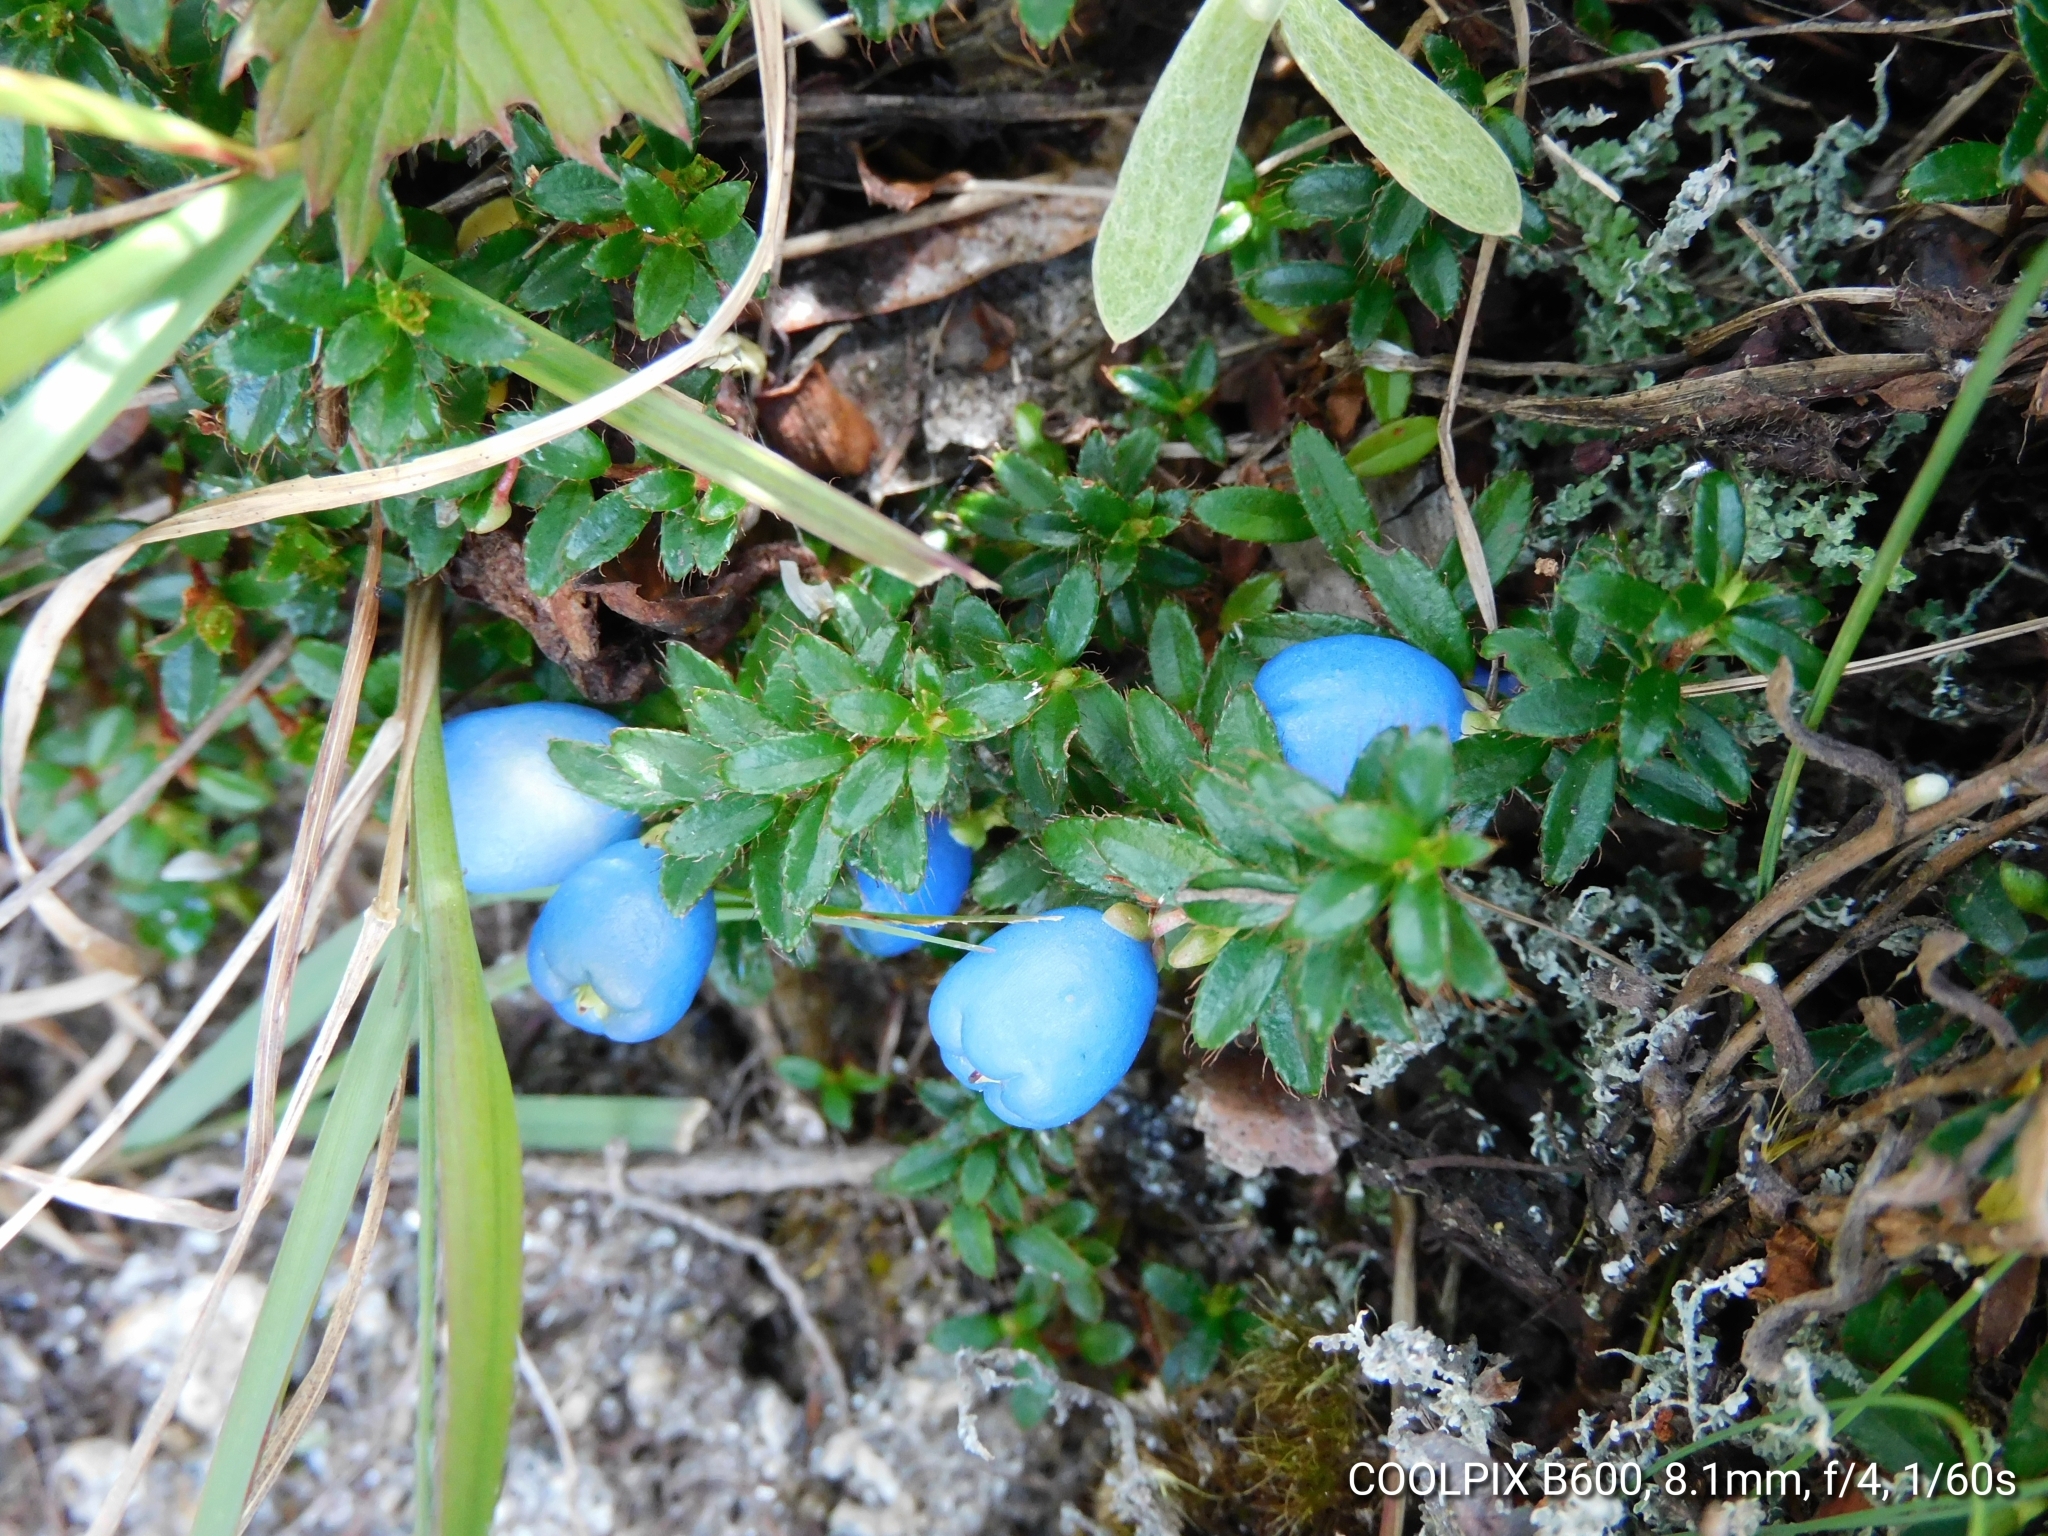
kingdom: Plantae
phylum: Tracheophyta
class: Magnoliopsida
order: Ericales
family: Ericaceae
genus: Gaultheria
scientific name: Gaultheria trichophylla
